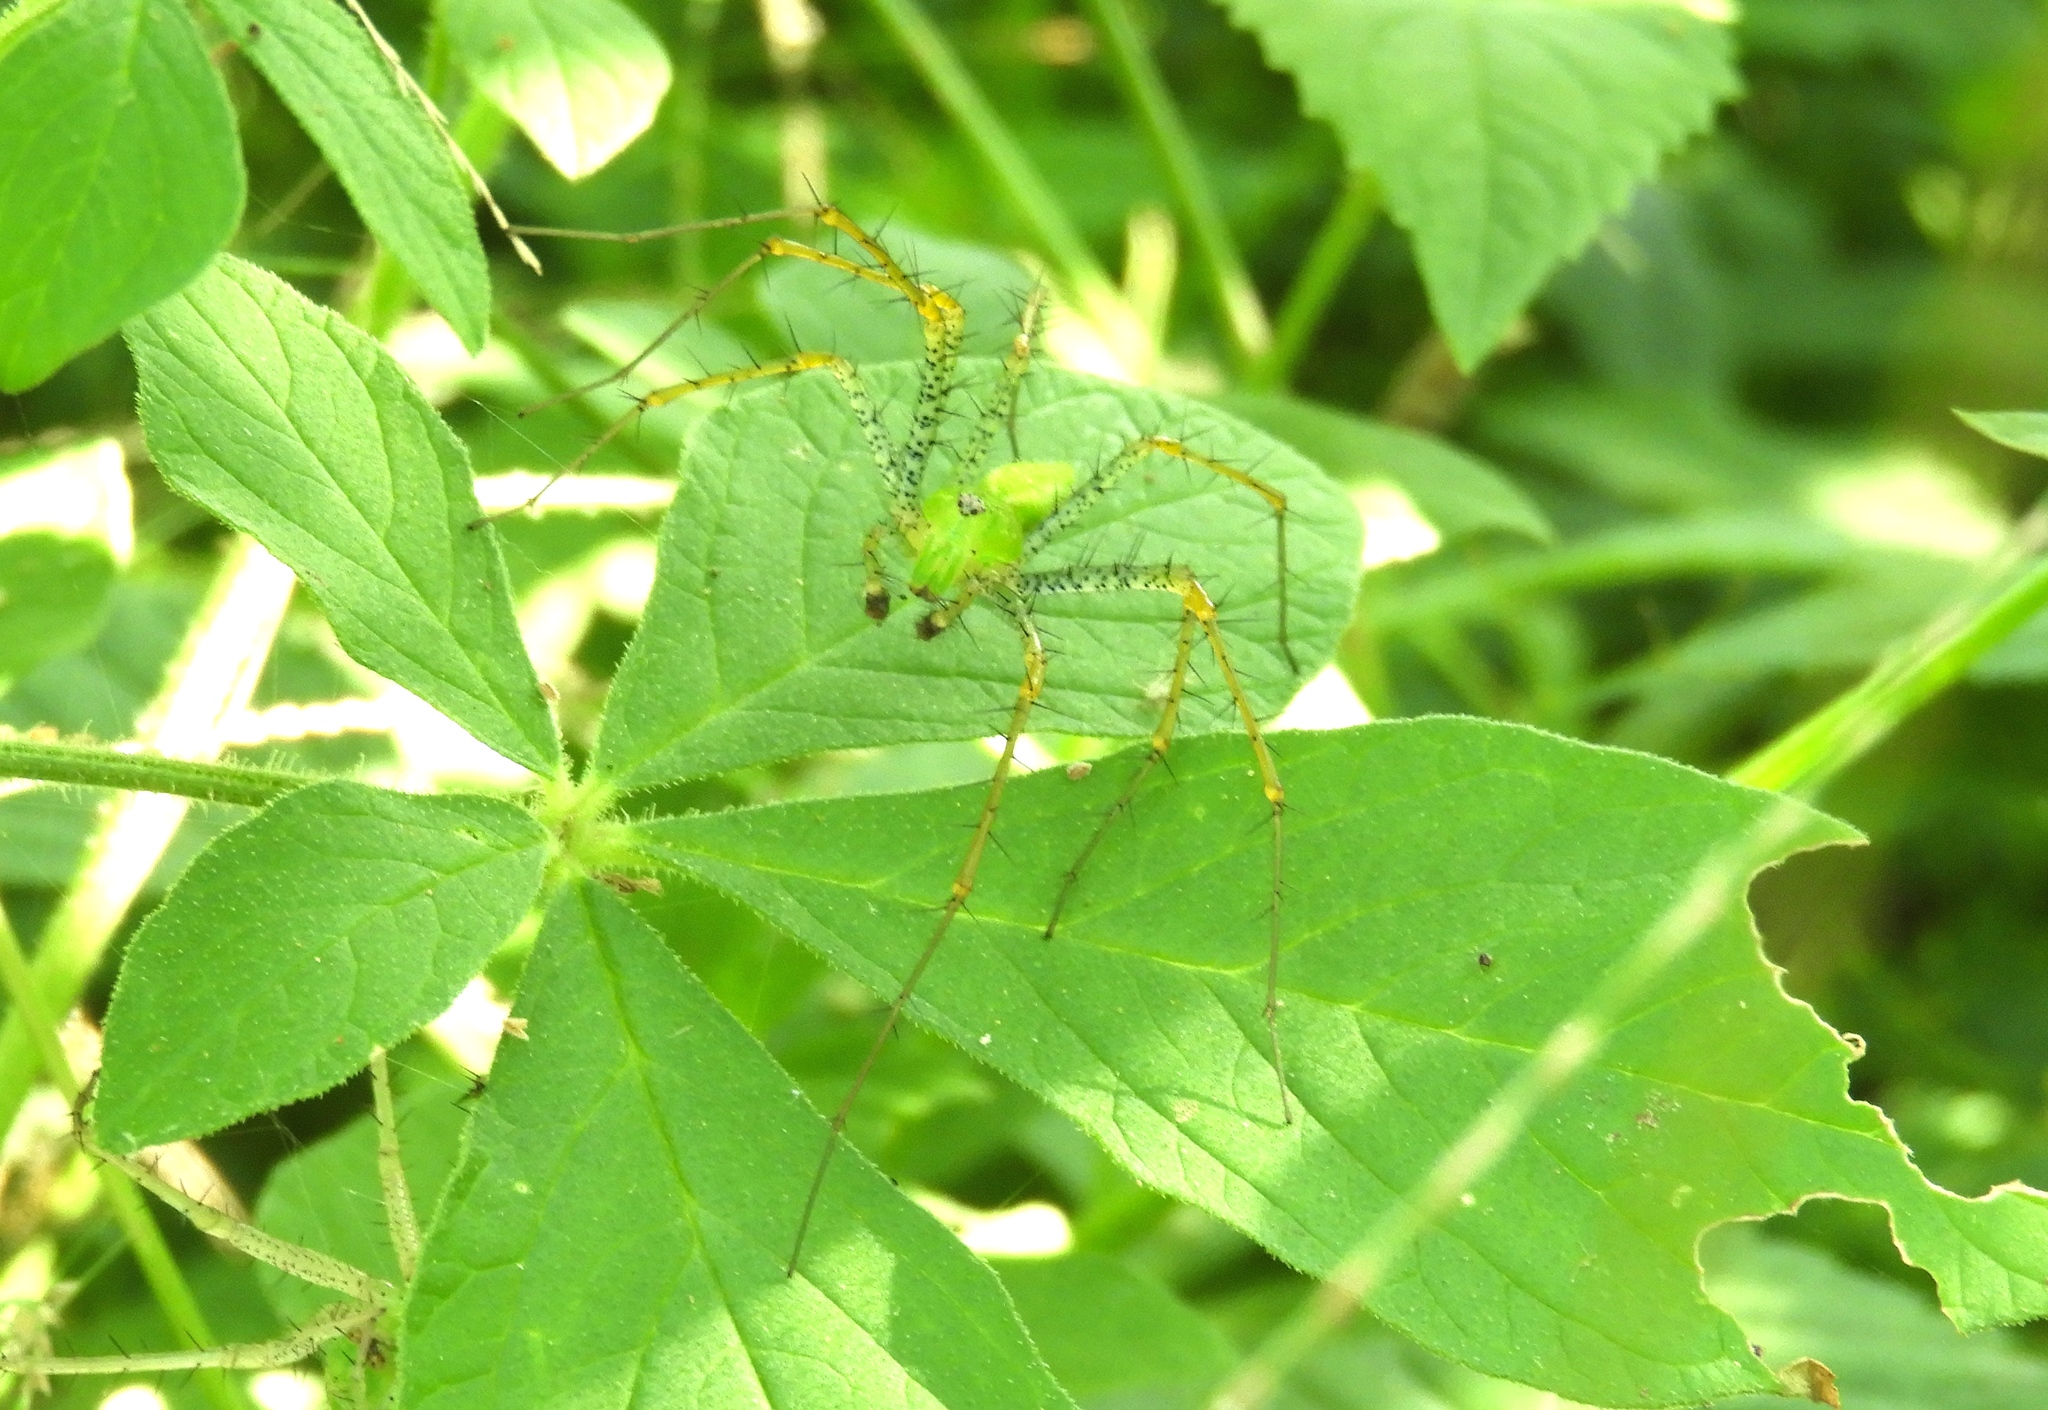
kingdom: Animalia
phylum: Arthropoda
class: Arachnida
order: Araneae
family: Oxyopidae
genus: Peucetia
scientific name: Peucetia
